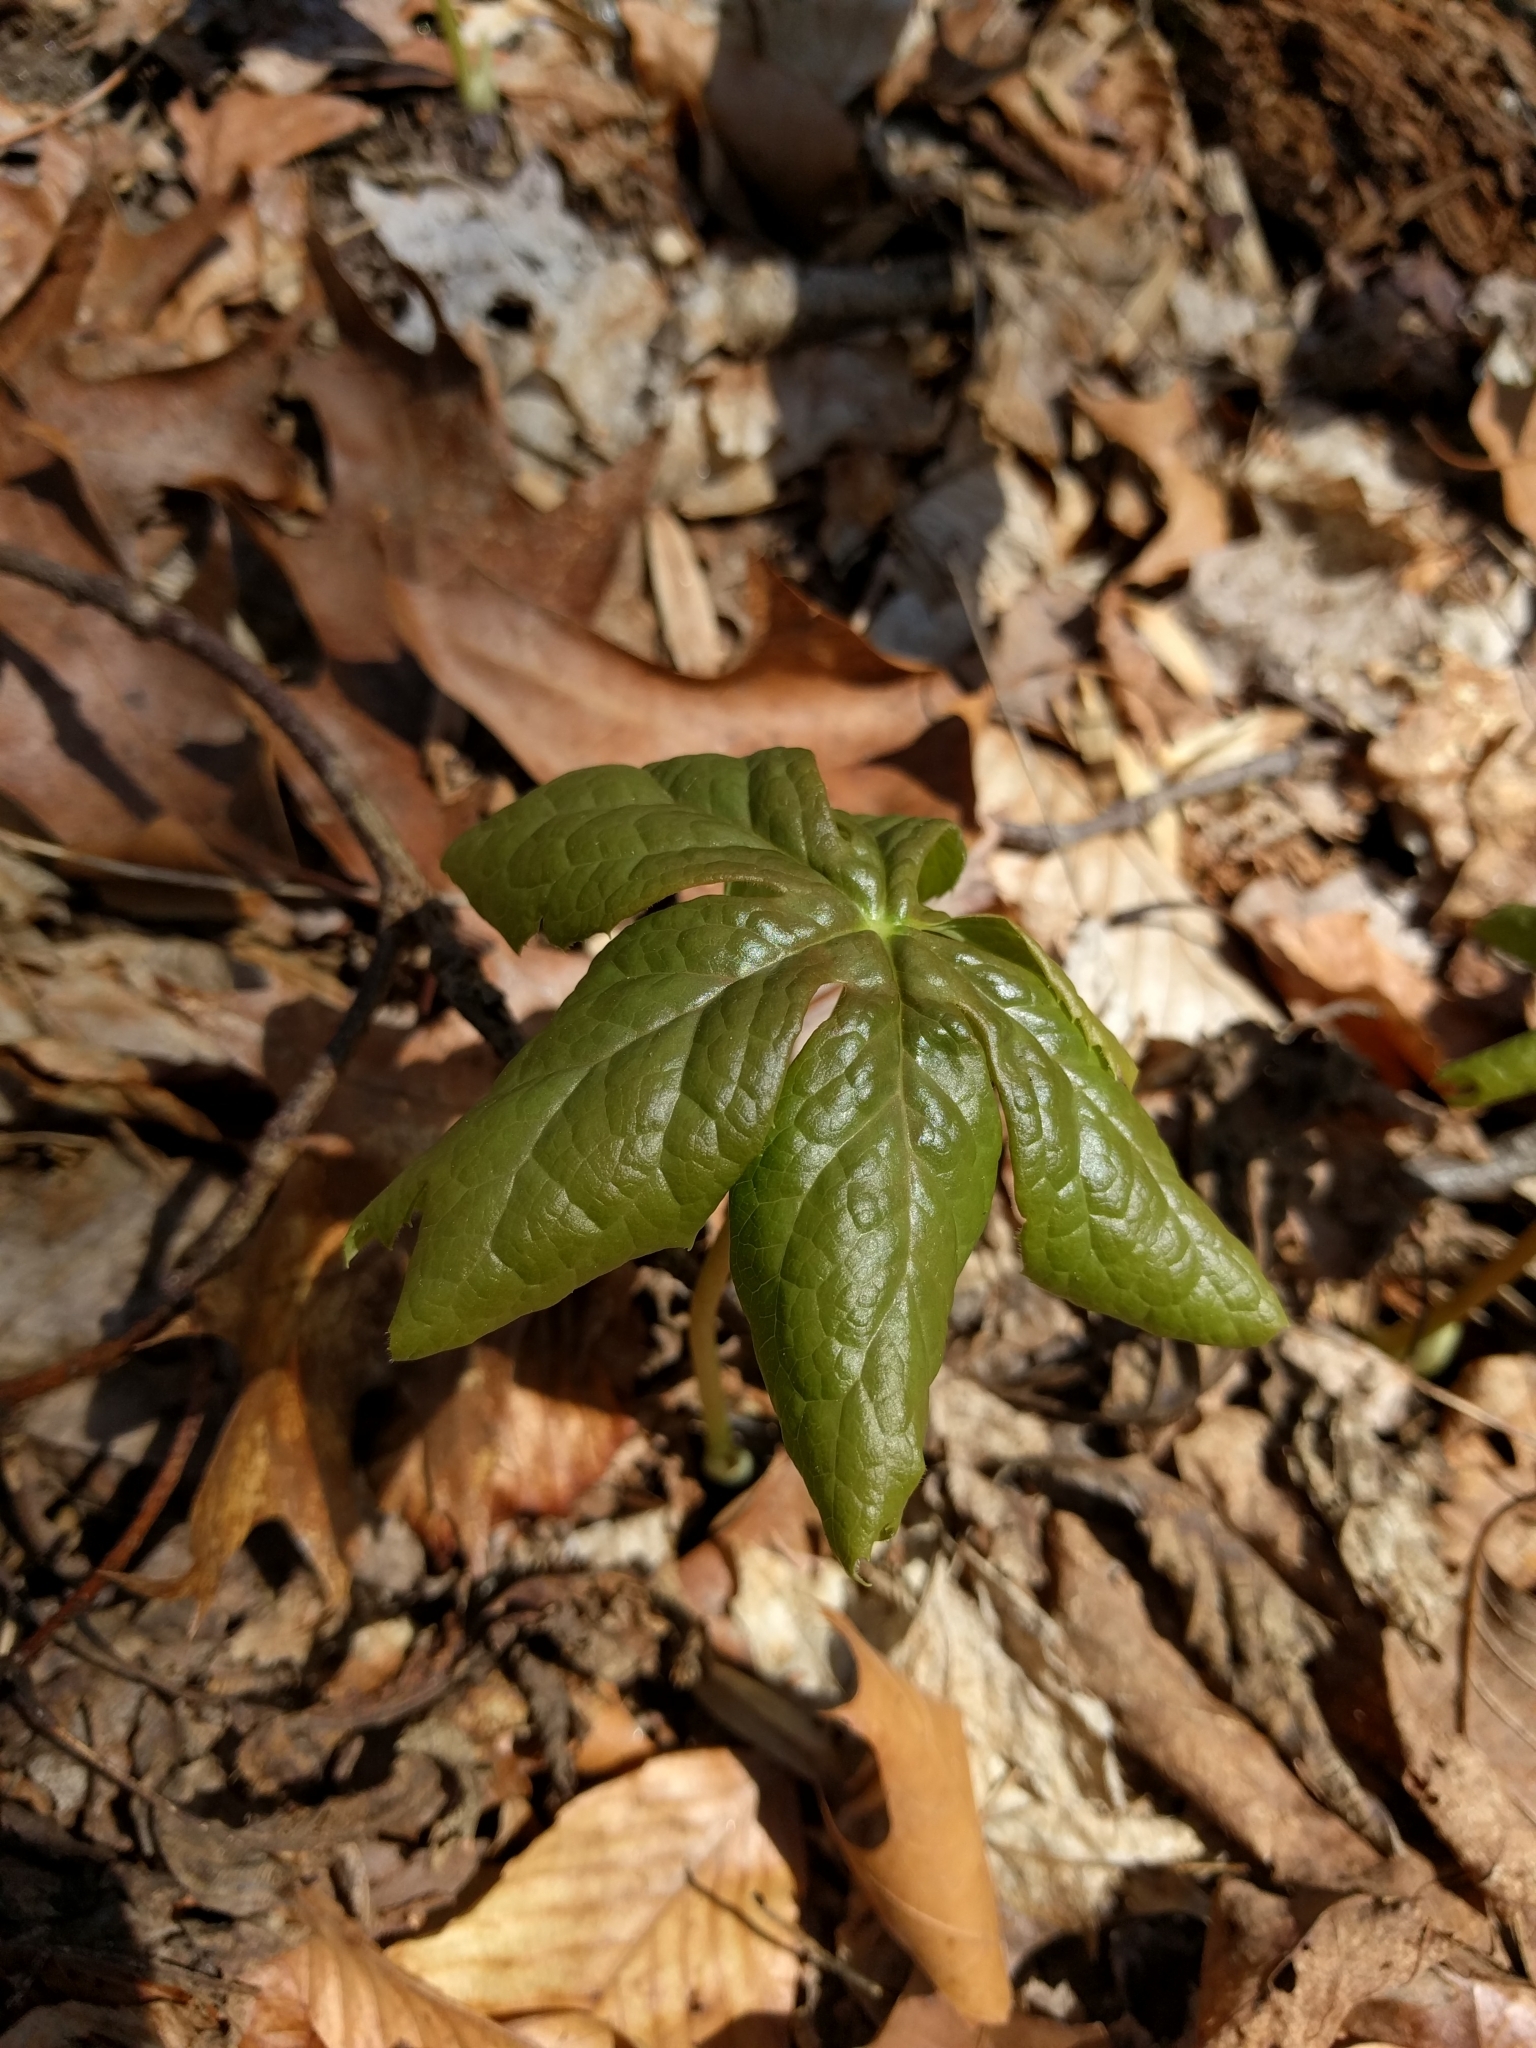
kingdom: Plantae
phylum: Tracheophyta
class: Magnoliopsida
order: Ranunculales
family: Berberidaceae
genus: Podophyllum
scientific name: Podophyllum peltatum
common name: Wild mandrake
